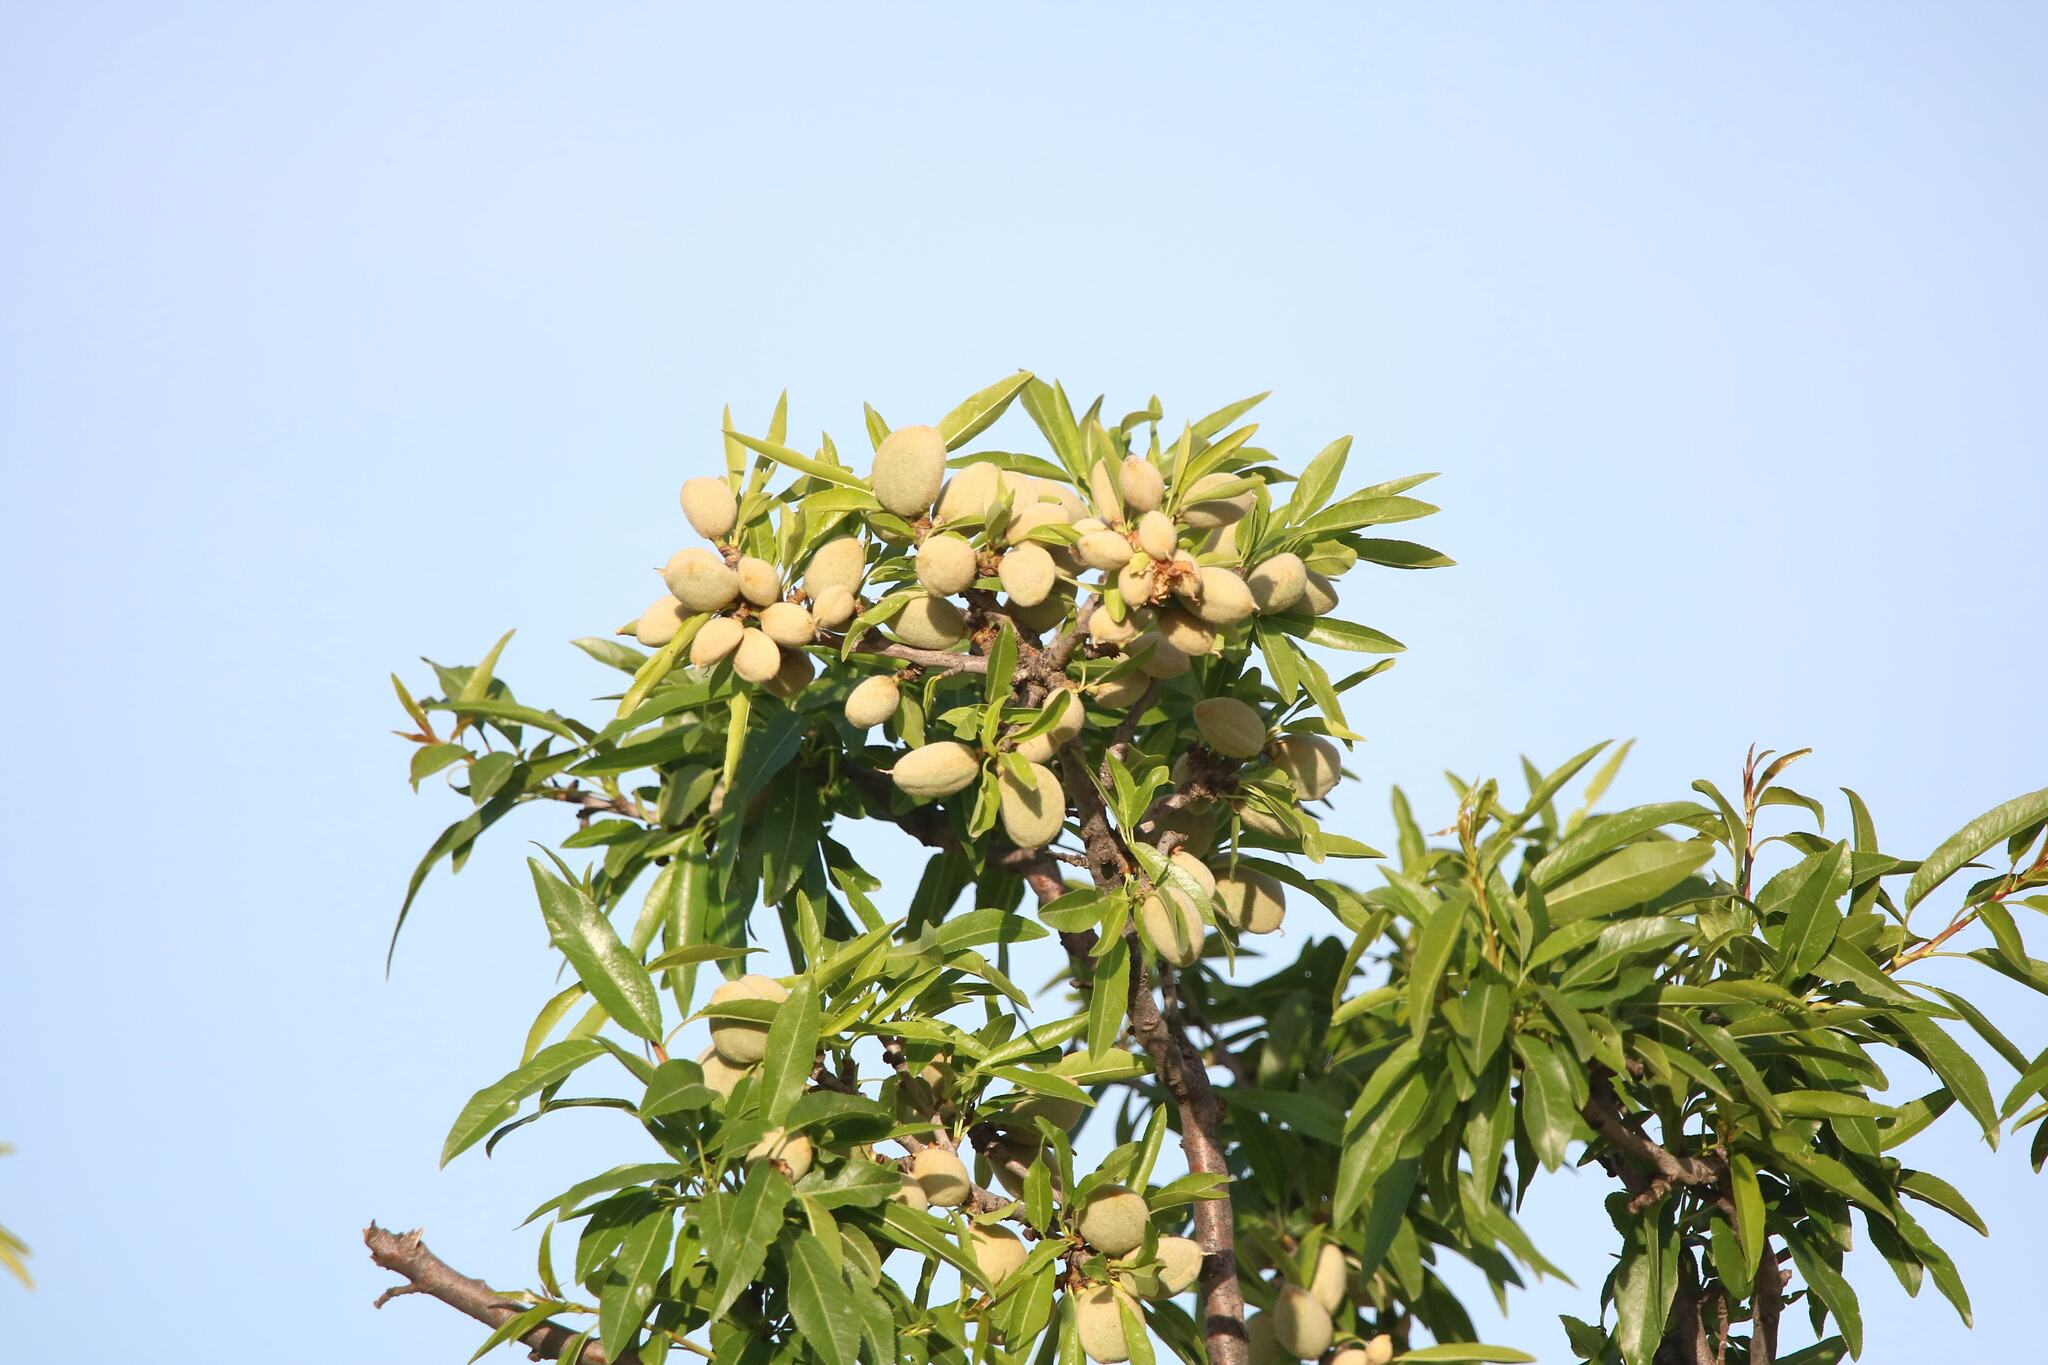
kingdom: Plantae
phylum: Tracheophyta
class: Magnoliopsida
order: Rosales
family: Rosaceae
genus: Prunus
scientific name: Prunus amygdalus
